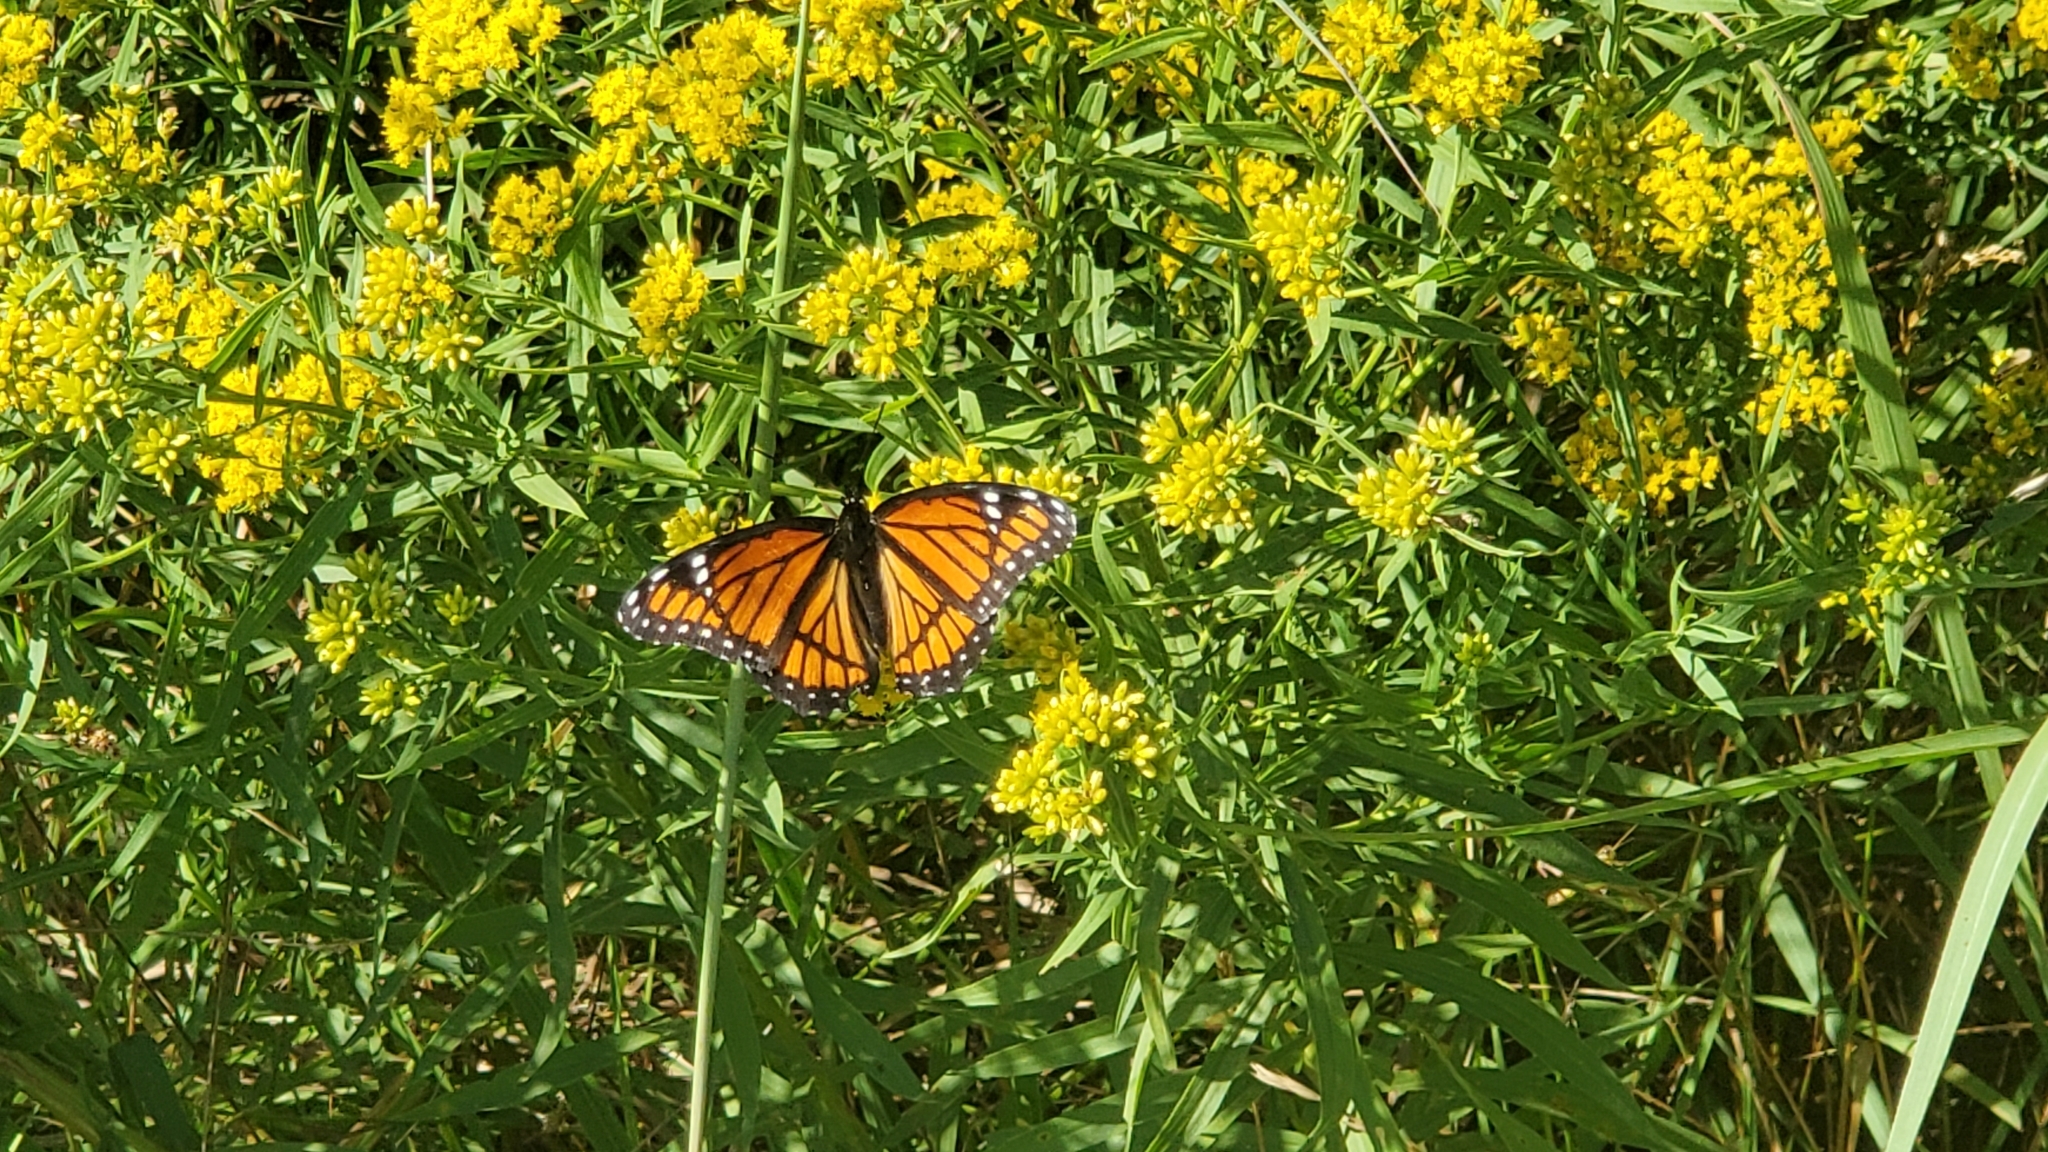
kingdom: Animalia
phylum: Arthropoda
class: Insecta
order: Lepidoptera
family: Nymphalidae
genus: Limenitis
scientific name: Limenitis archippus
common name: Viceroy
